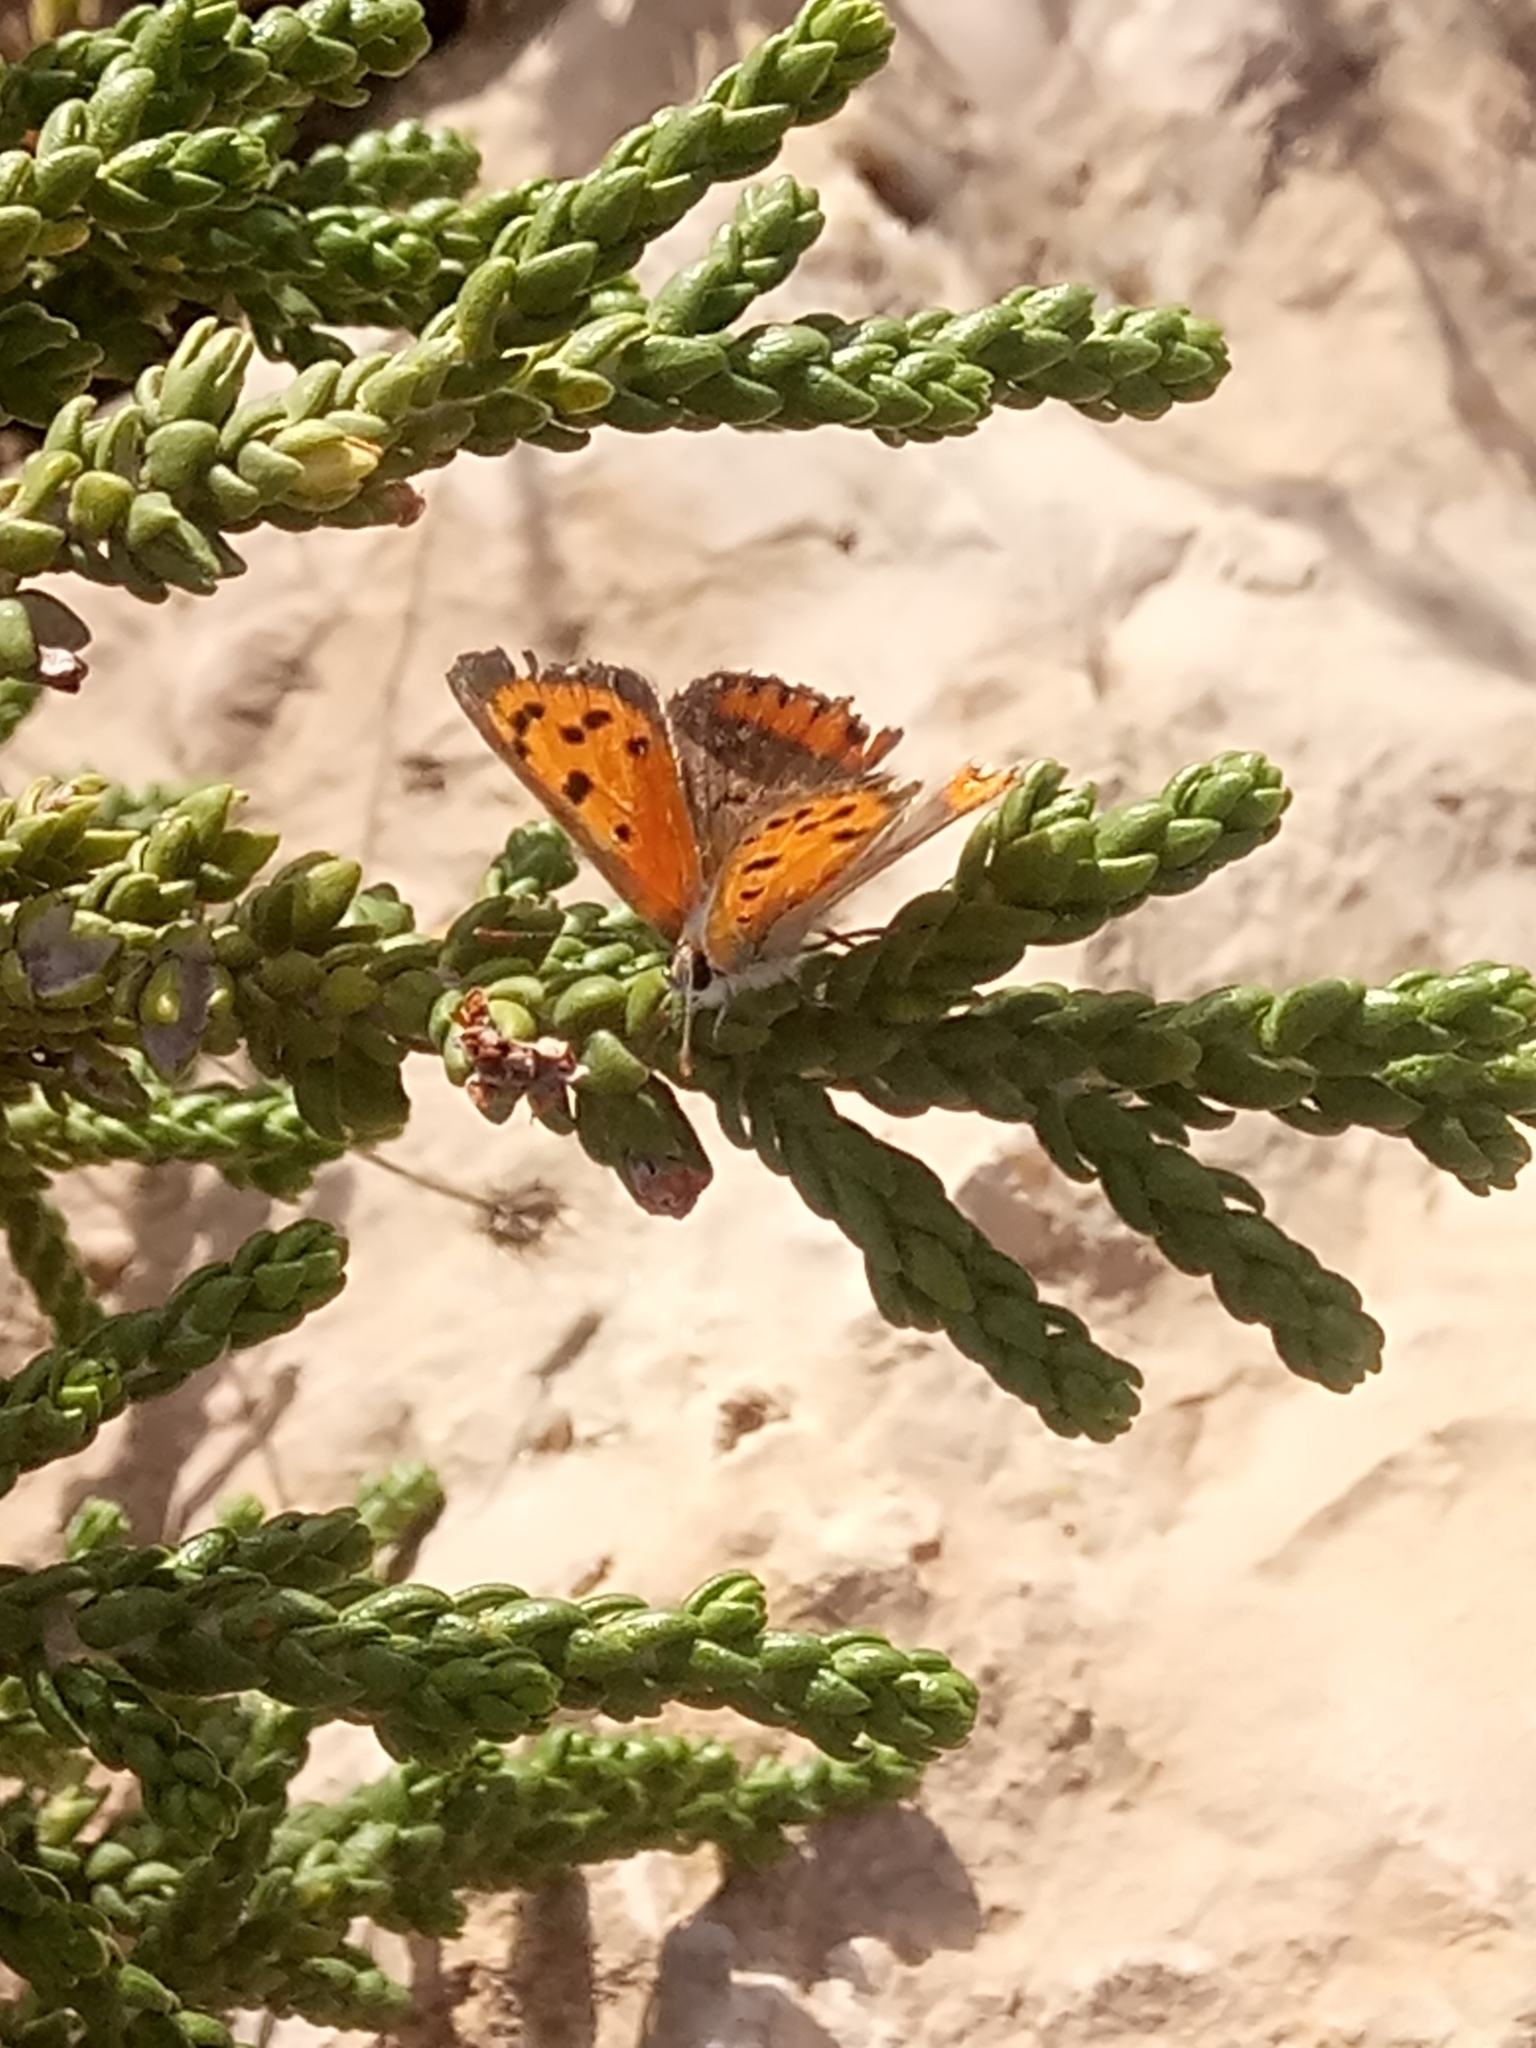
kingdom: Animalia
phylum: Arthropoda
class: Insecta
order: Lepidoptera
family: Lycaenidae
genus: Lycaena
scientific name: Lycaena phlaeas
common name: Small copper
